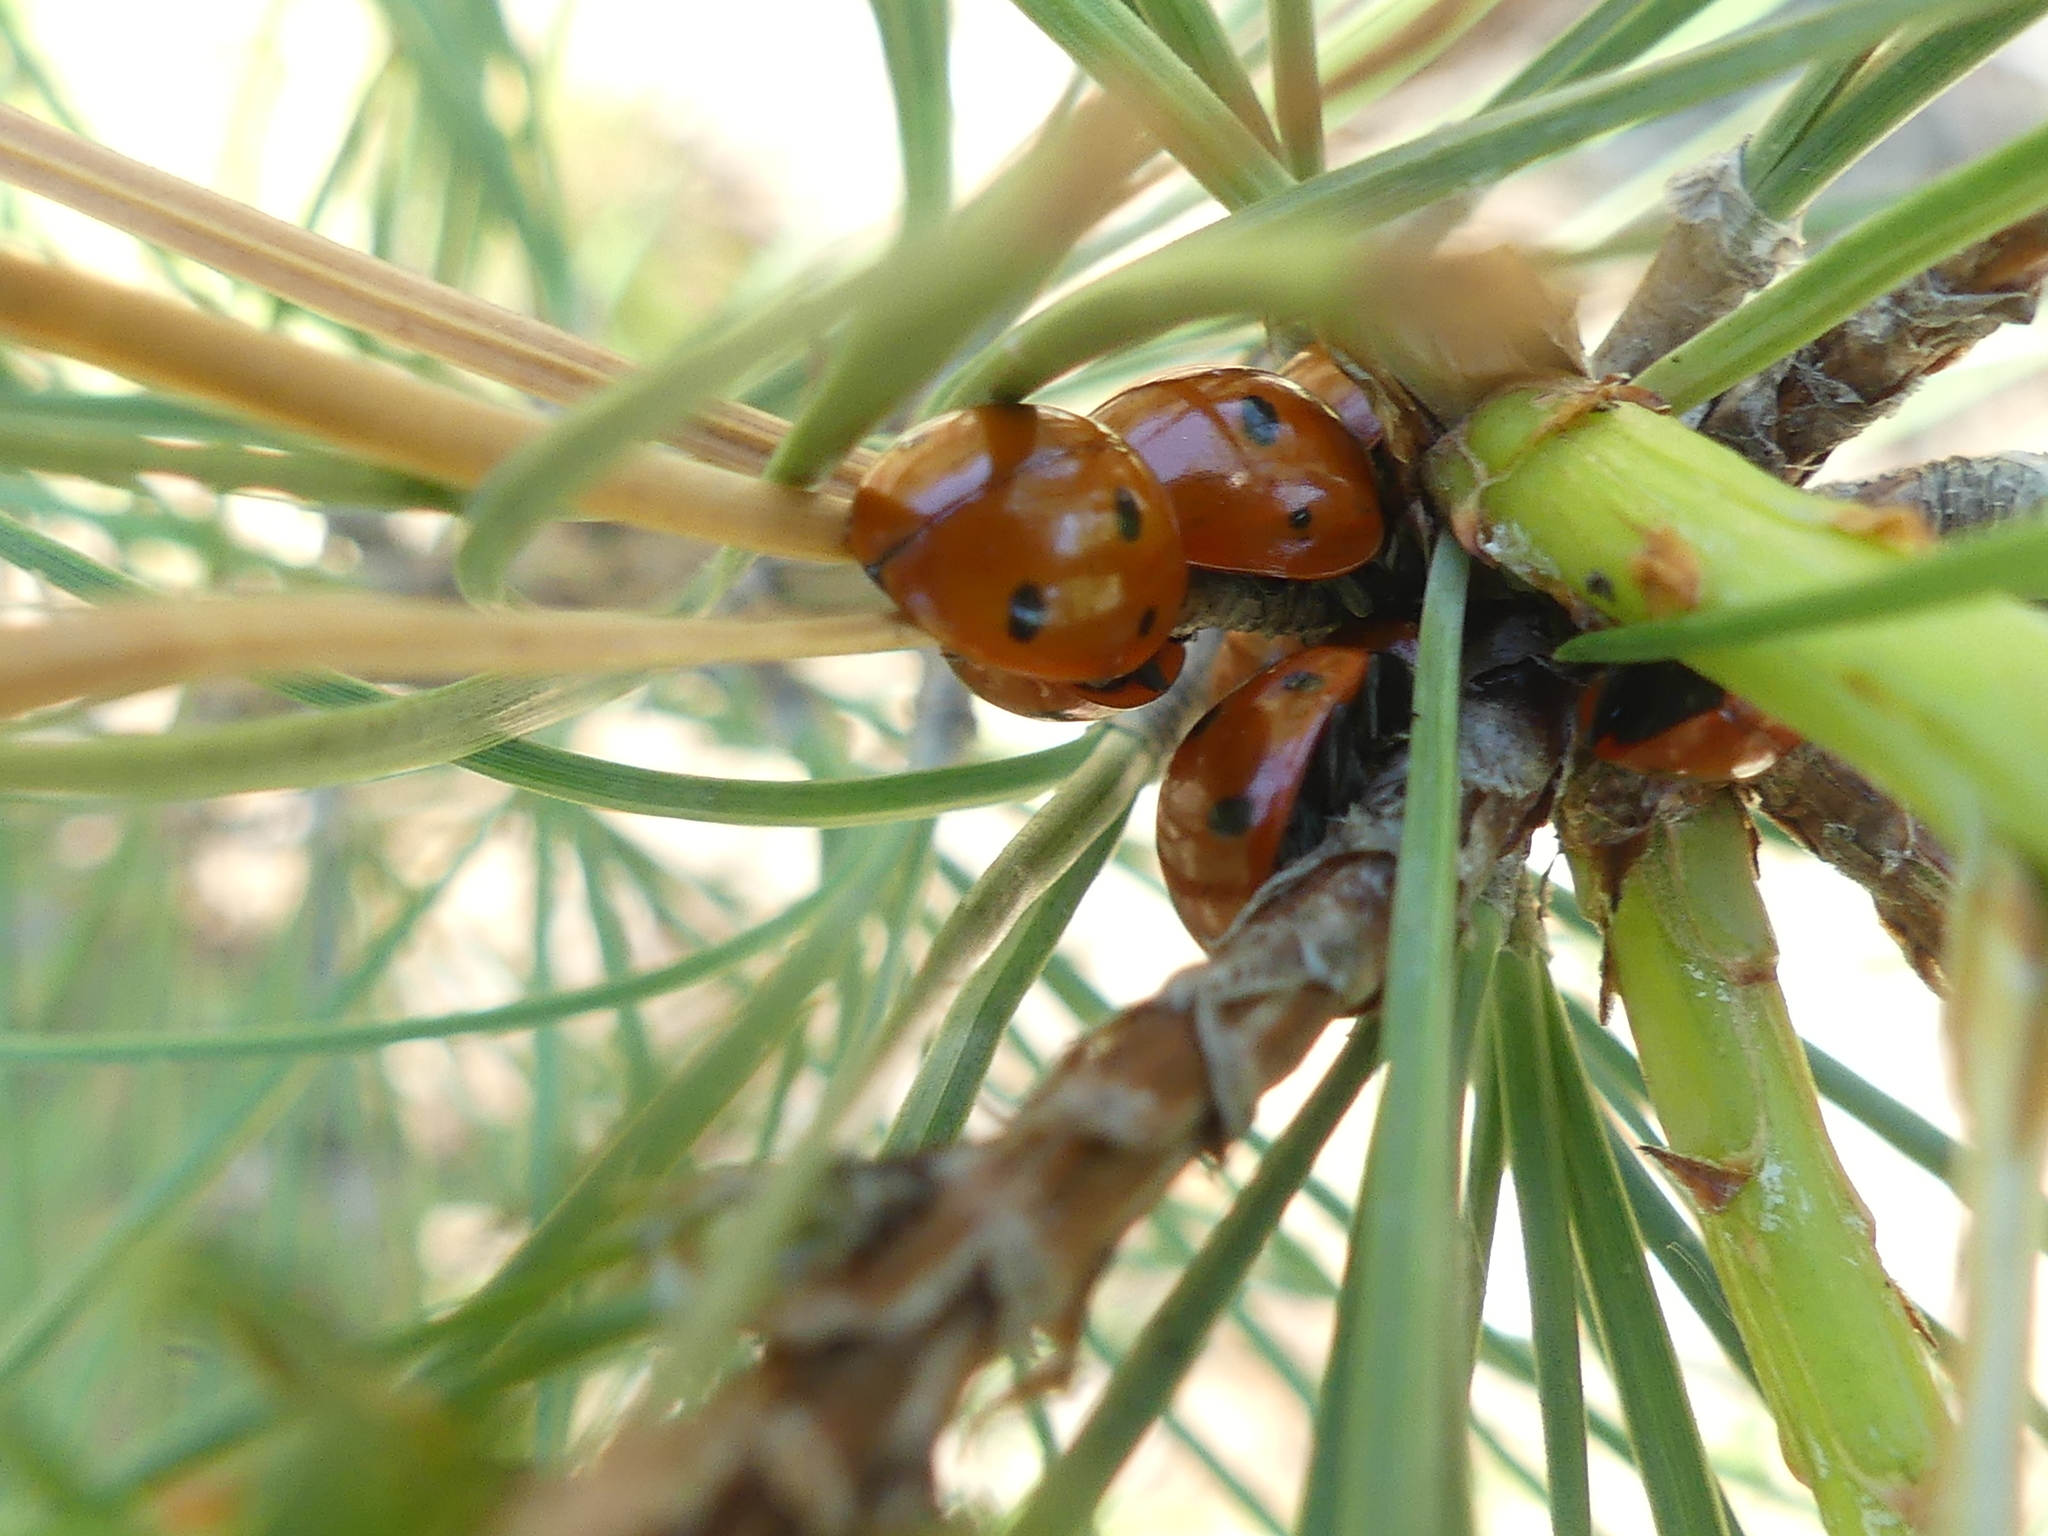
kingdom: Animalia
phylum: Arthropoda
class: Insecta
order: Coleoptera
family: Coccinellidae
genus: Coccinella
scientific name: Coccinella septempunctata
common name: Sevenspotted lady beetle
